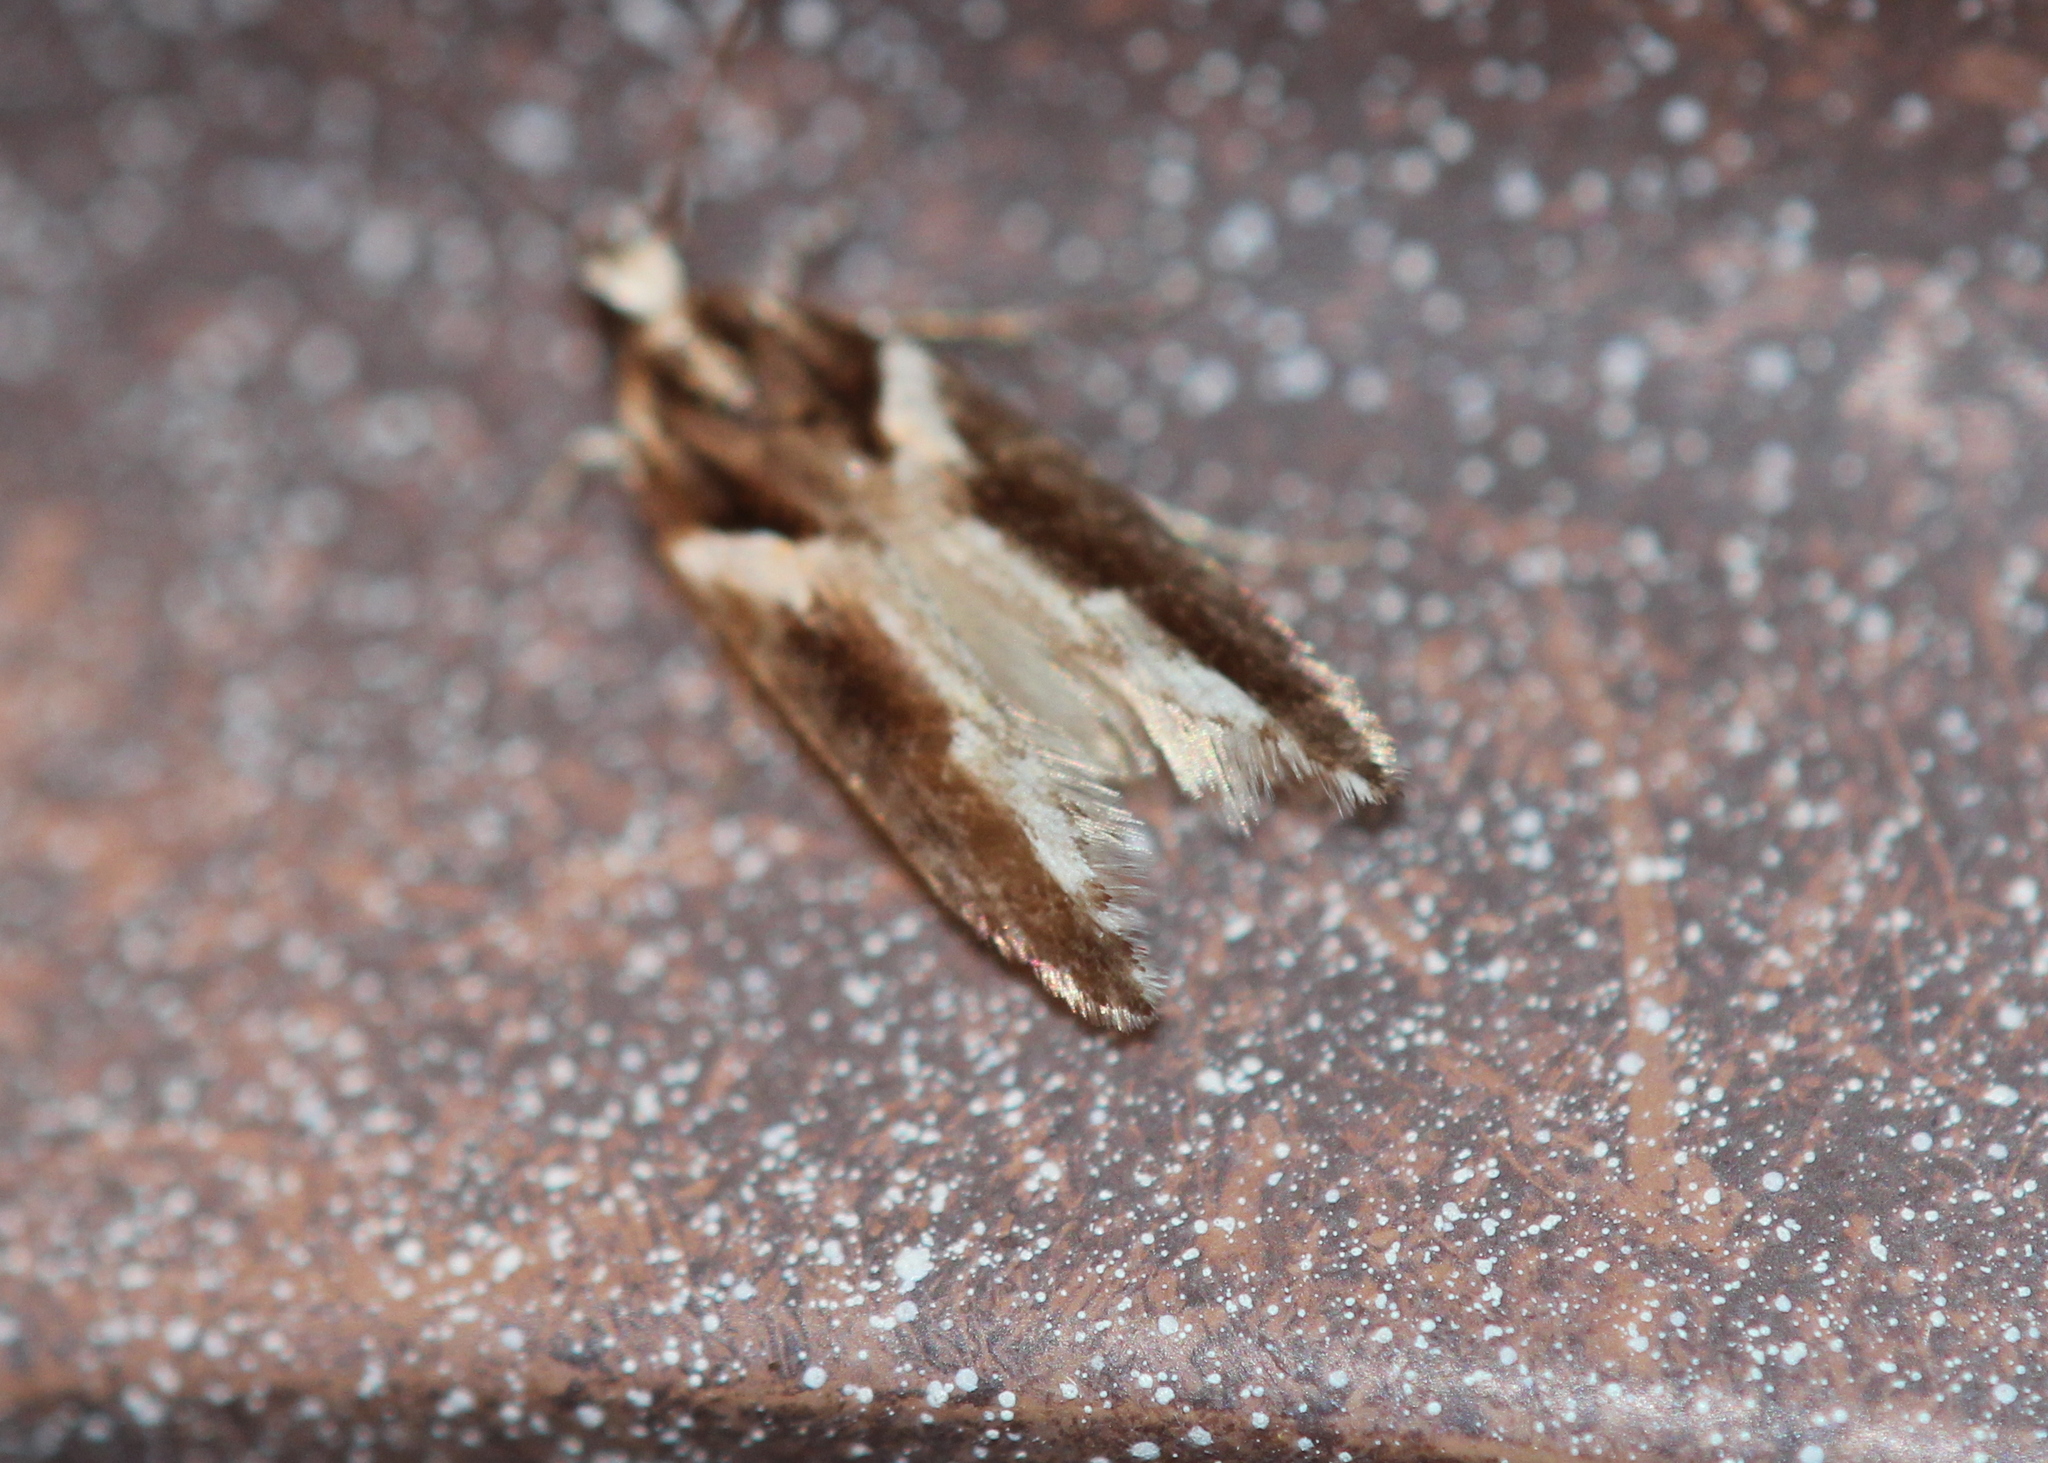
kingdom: Animalia
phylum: Arthropoda
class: Insecta
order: Lepidoptera
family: Gelechiidae
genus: Telphusa
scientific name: Telphusa longifasciella
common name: Y-backed telphusa
